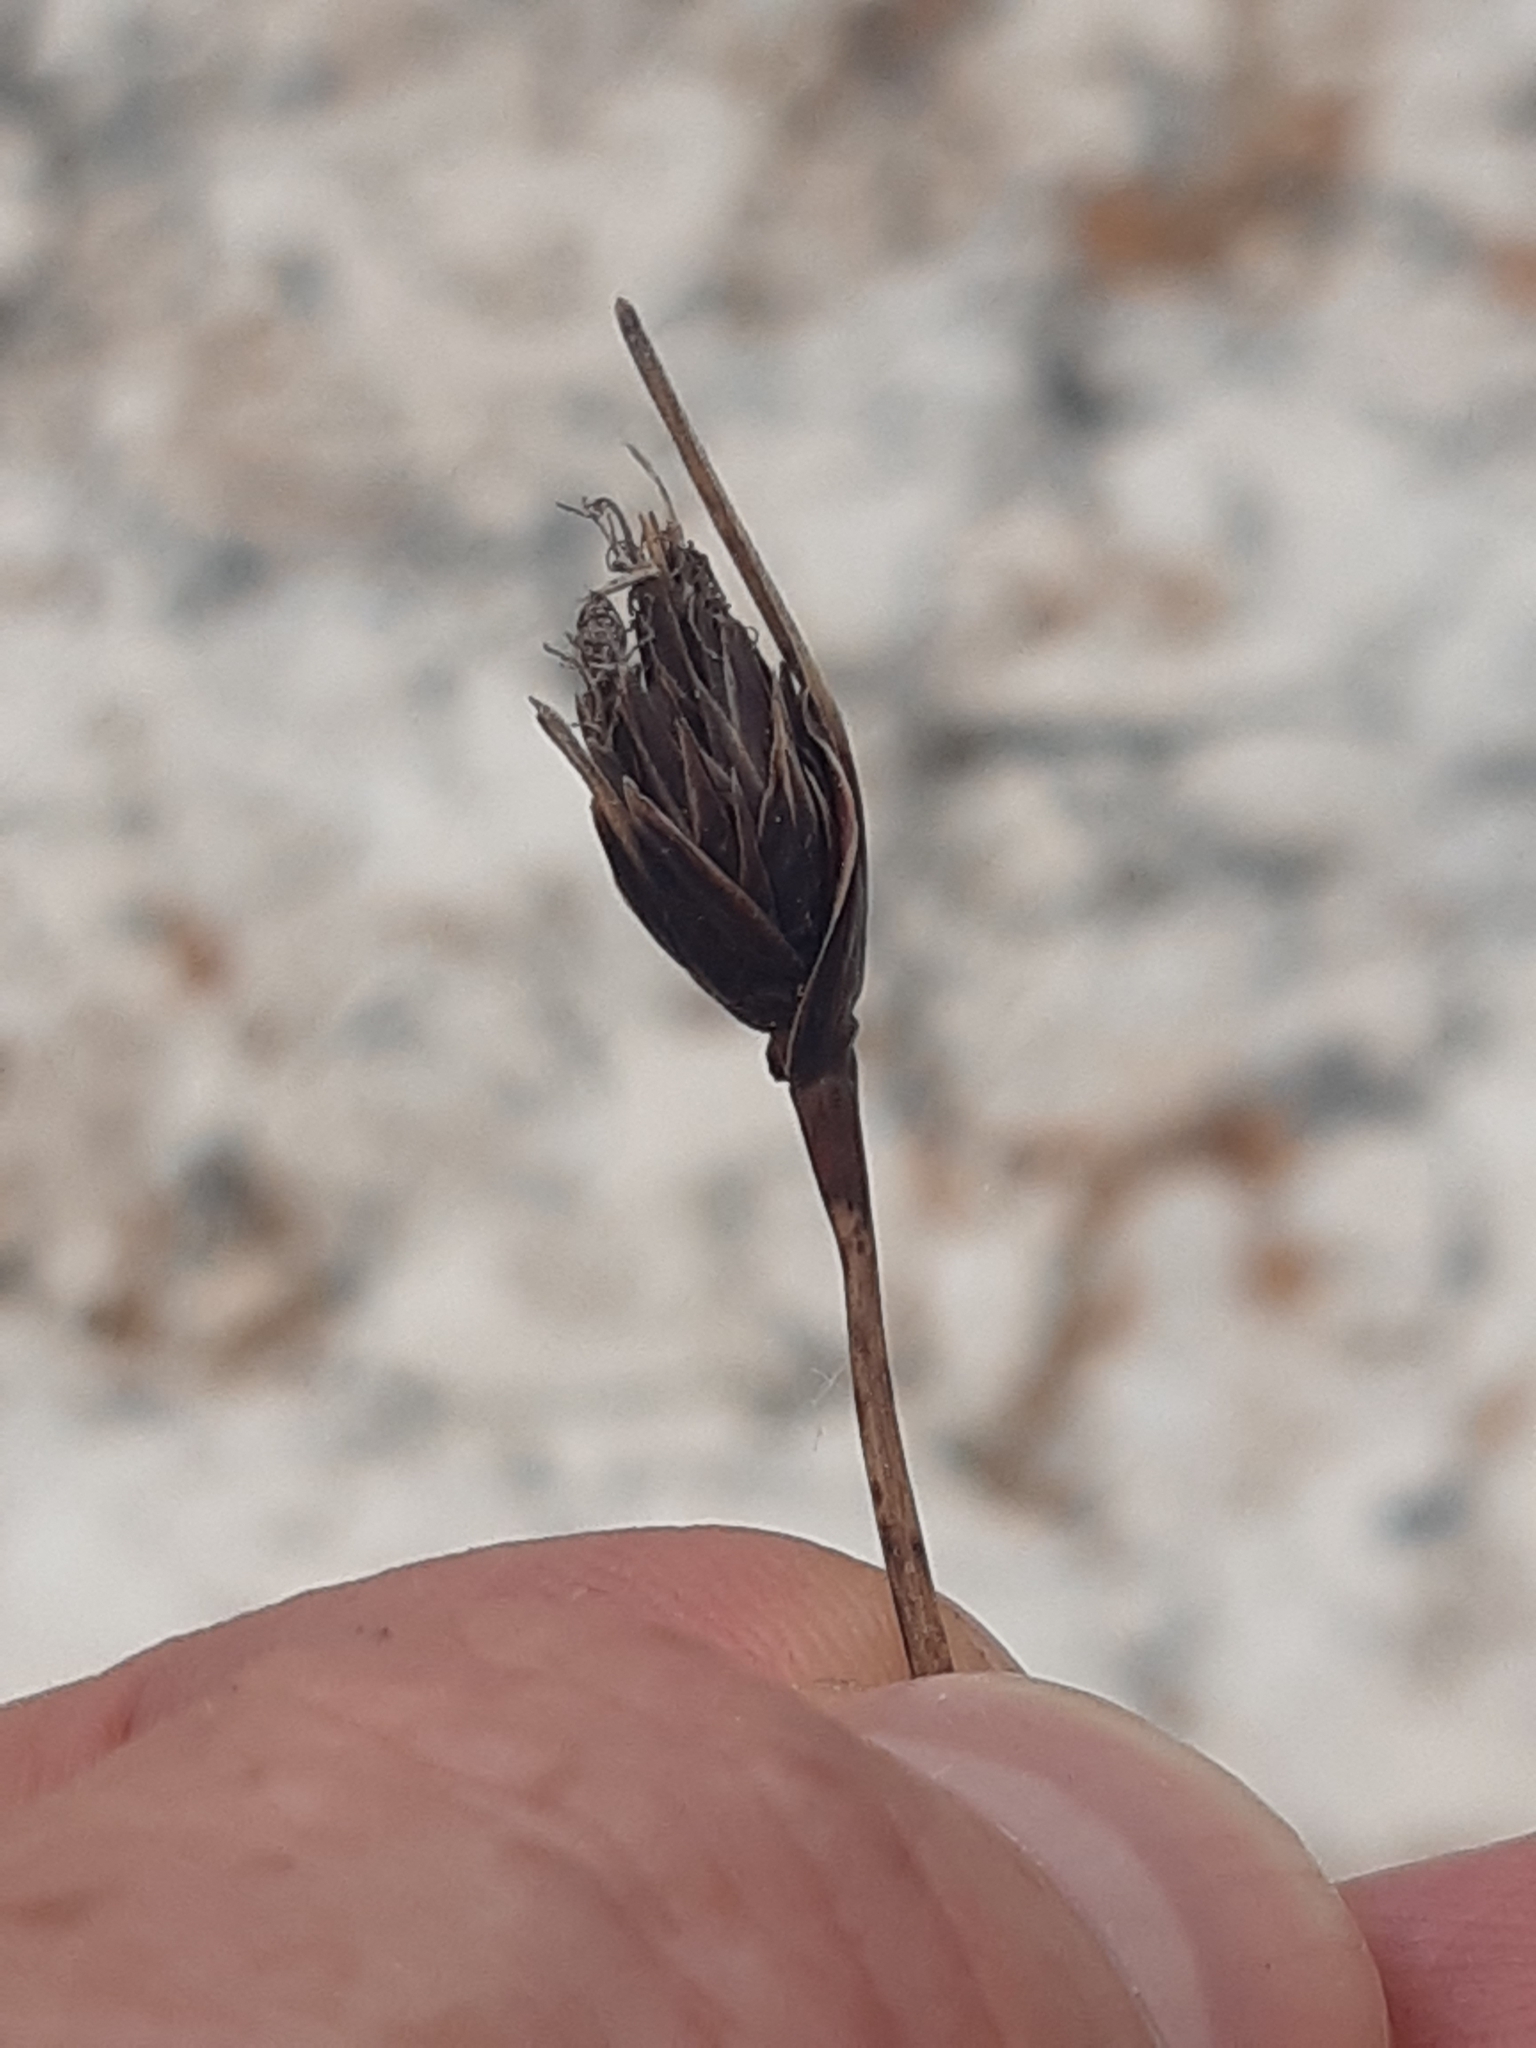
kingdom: Plantae
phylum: Tracheophyta
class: Liliopsida
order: Poales
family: Cyperaceae
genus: Schoenus
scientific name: Schoenus nigricans
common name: Black bog-rush
